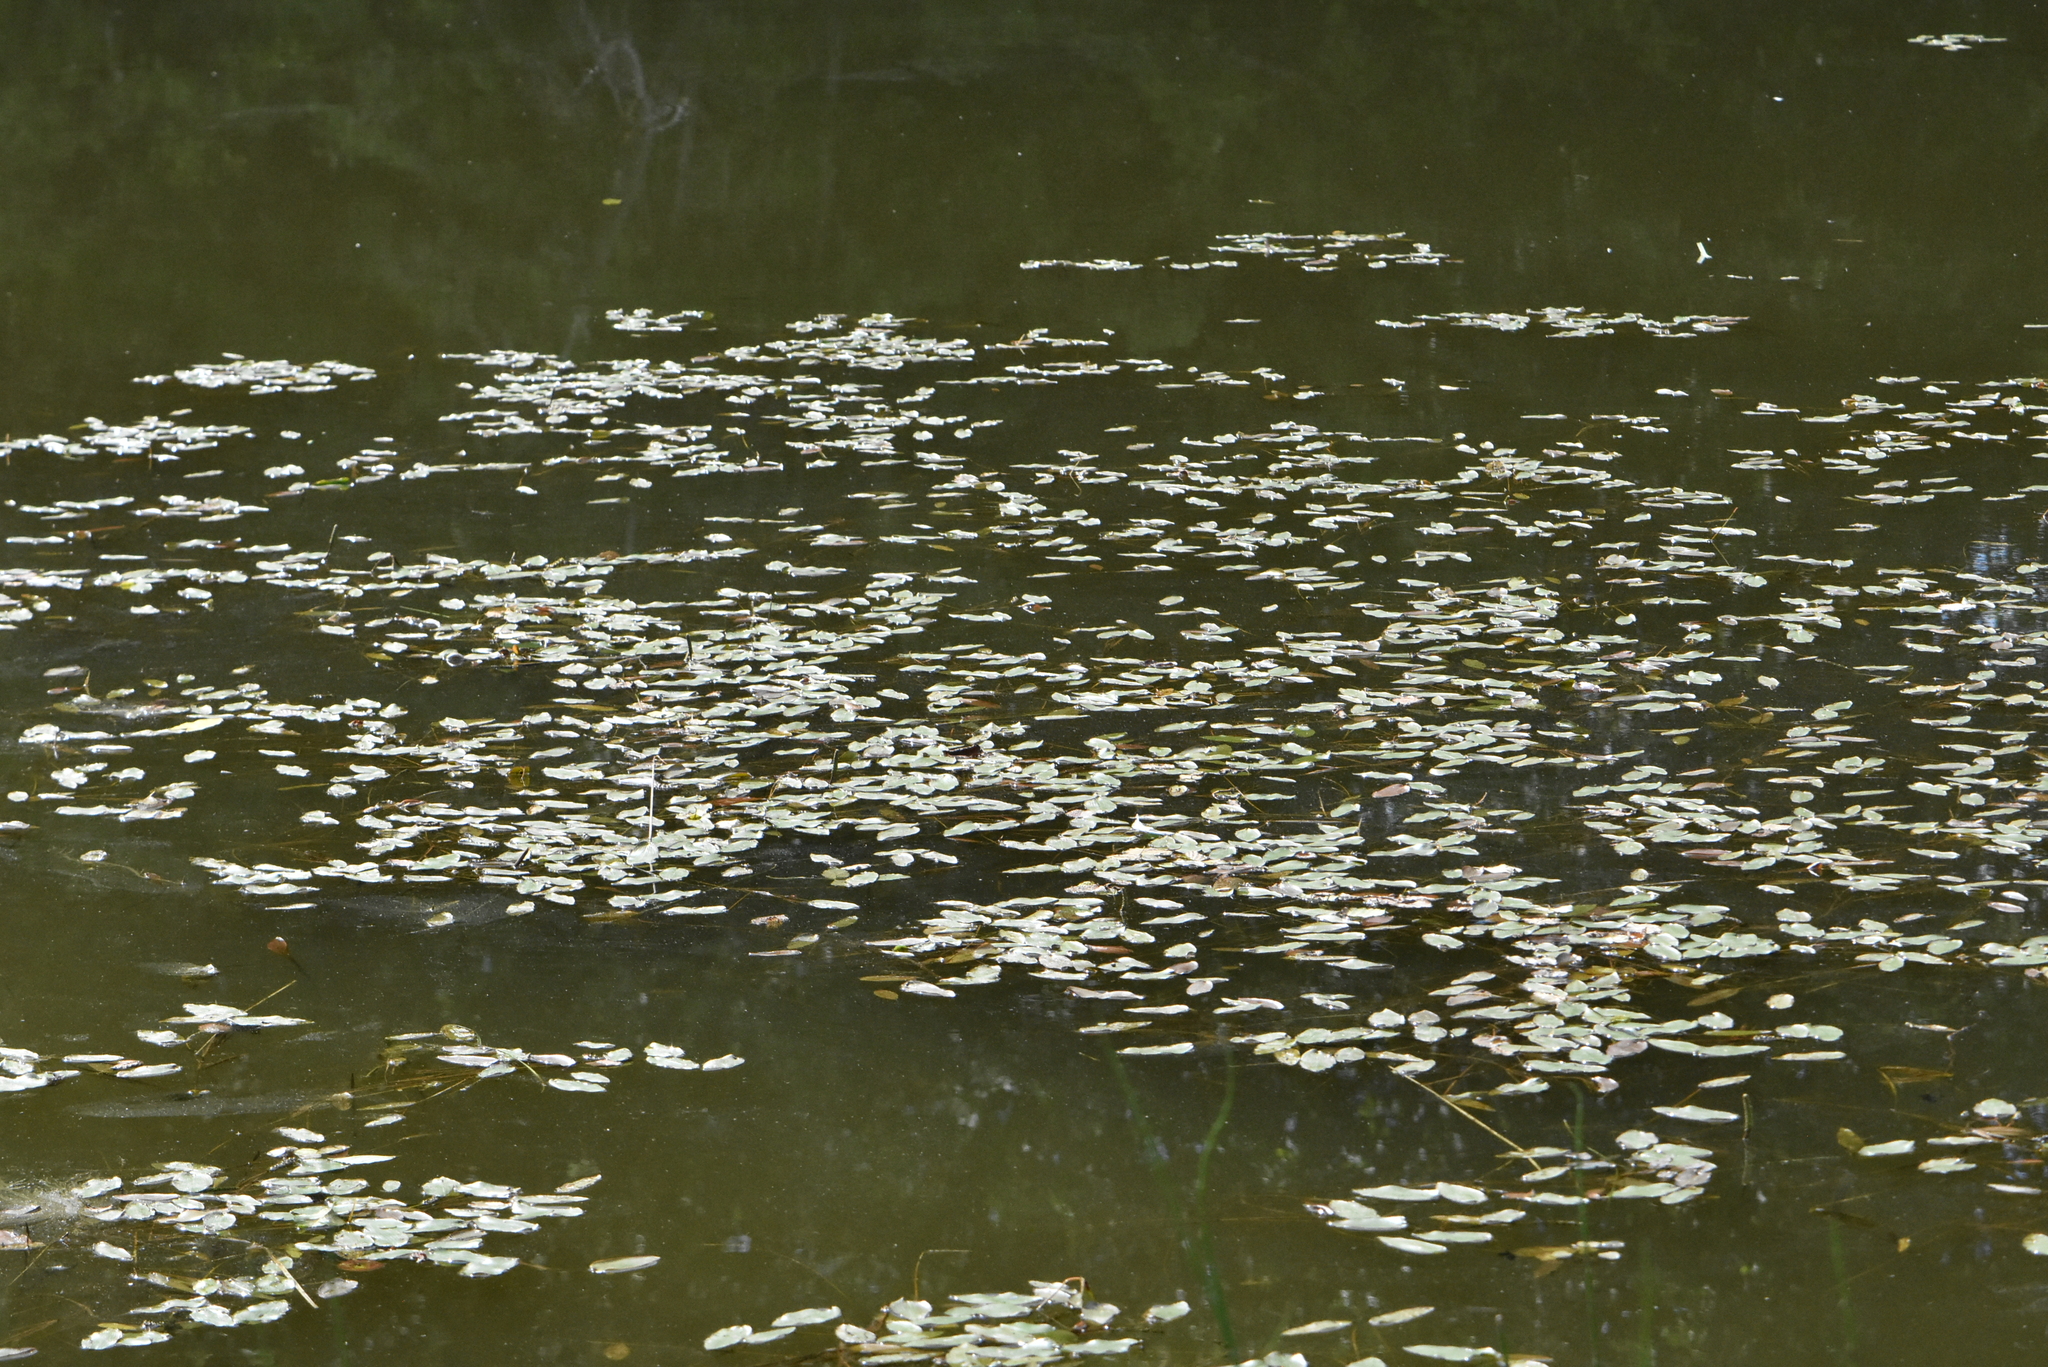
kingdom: Plantae
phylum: Tracheophyta
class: Liliopsida
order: Alismatales
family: Potamogetonaceae
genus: Potamogeton
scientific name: Potamogeton natans
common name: Broad-leaved pondweed
